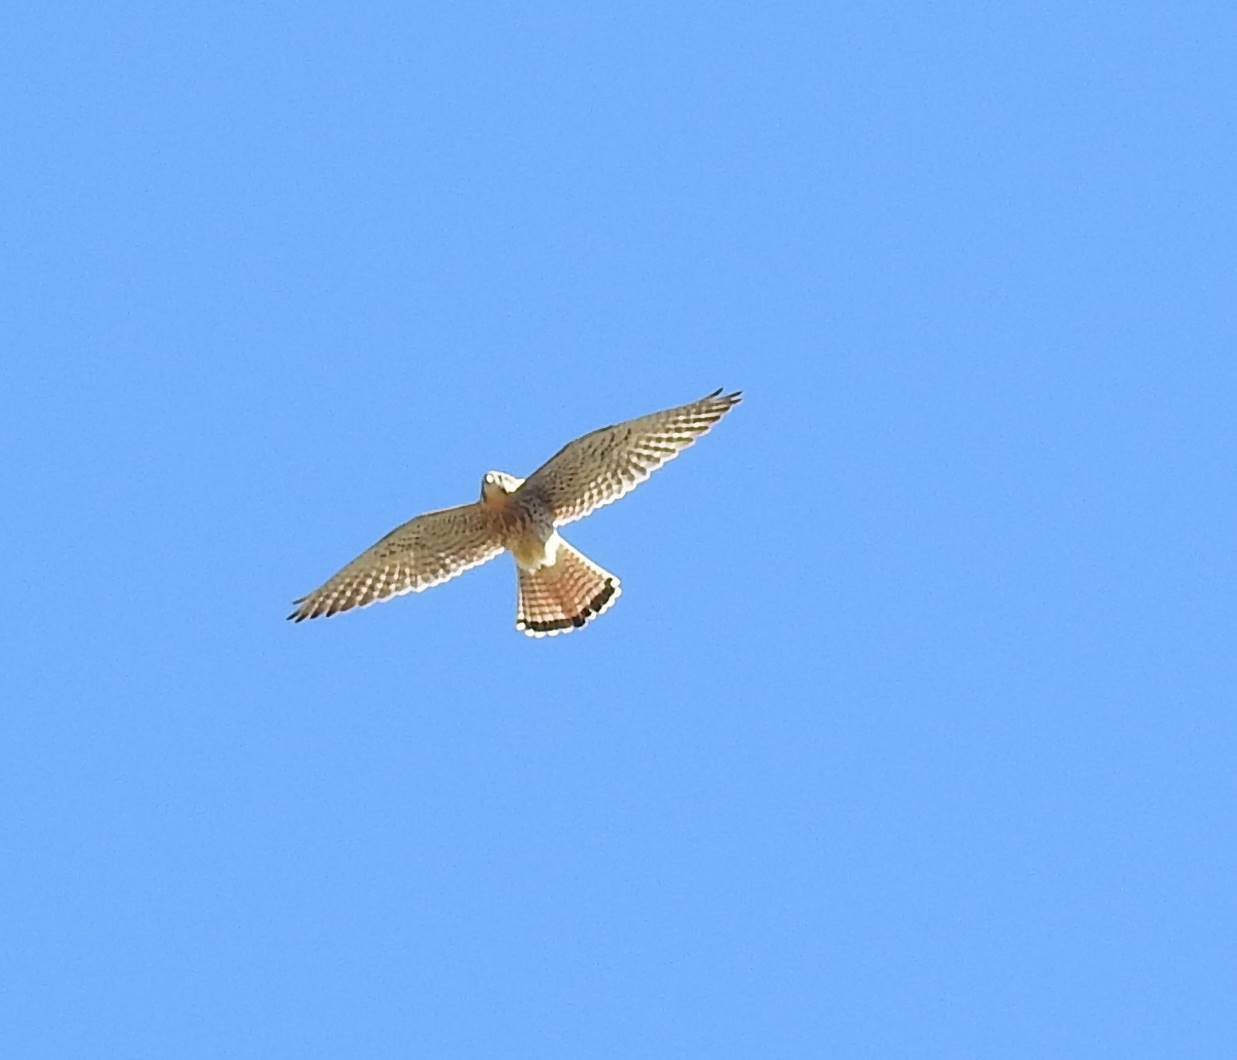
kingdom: Animalia
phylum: Chordata
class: Aves
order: Falconiformes
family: Falconidae
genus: Falco
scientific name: Falco tinnunculus
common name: Common kestrel
